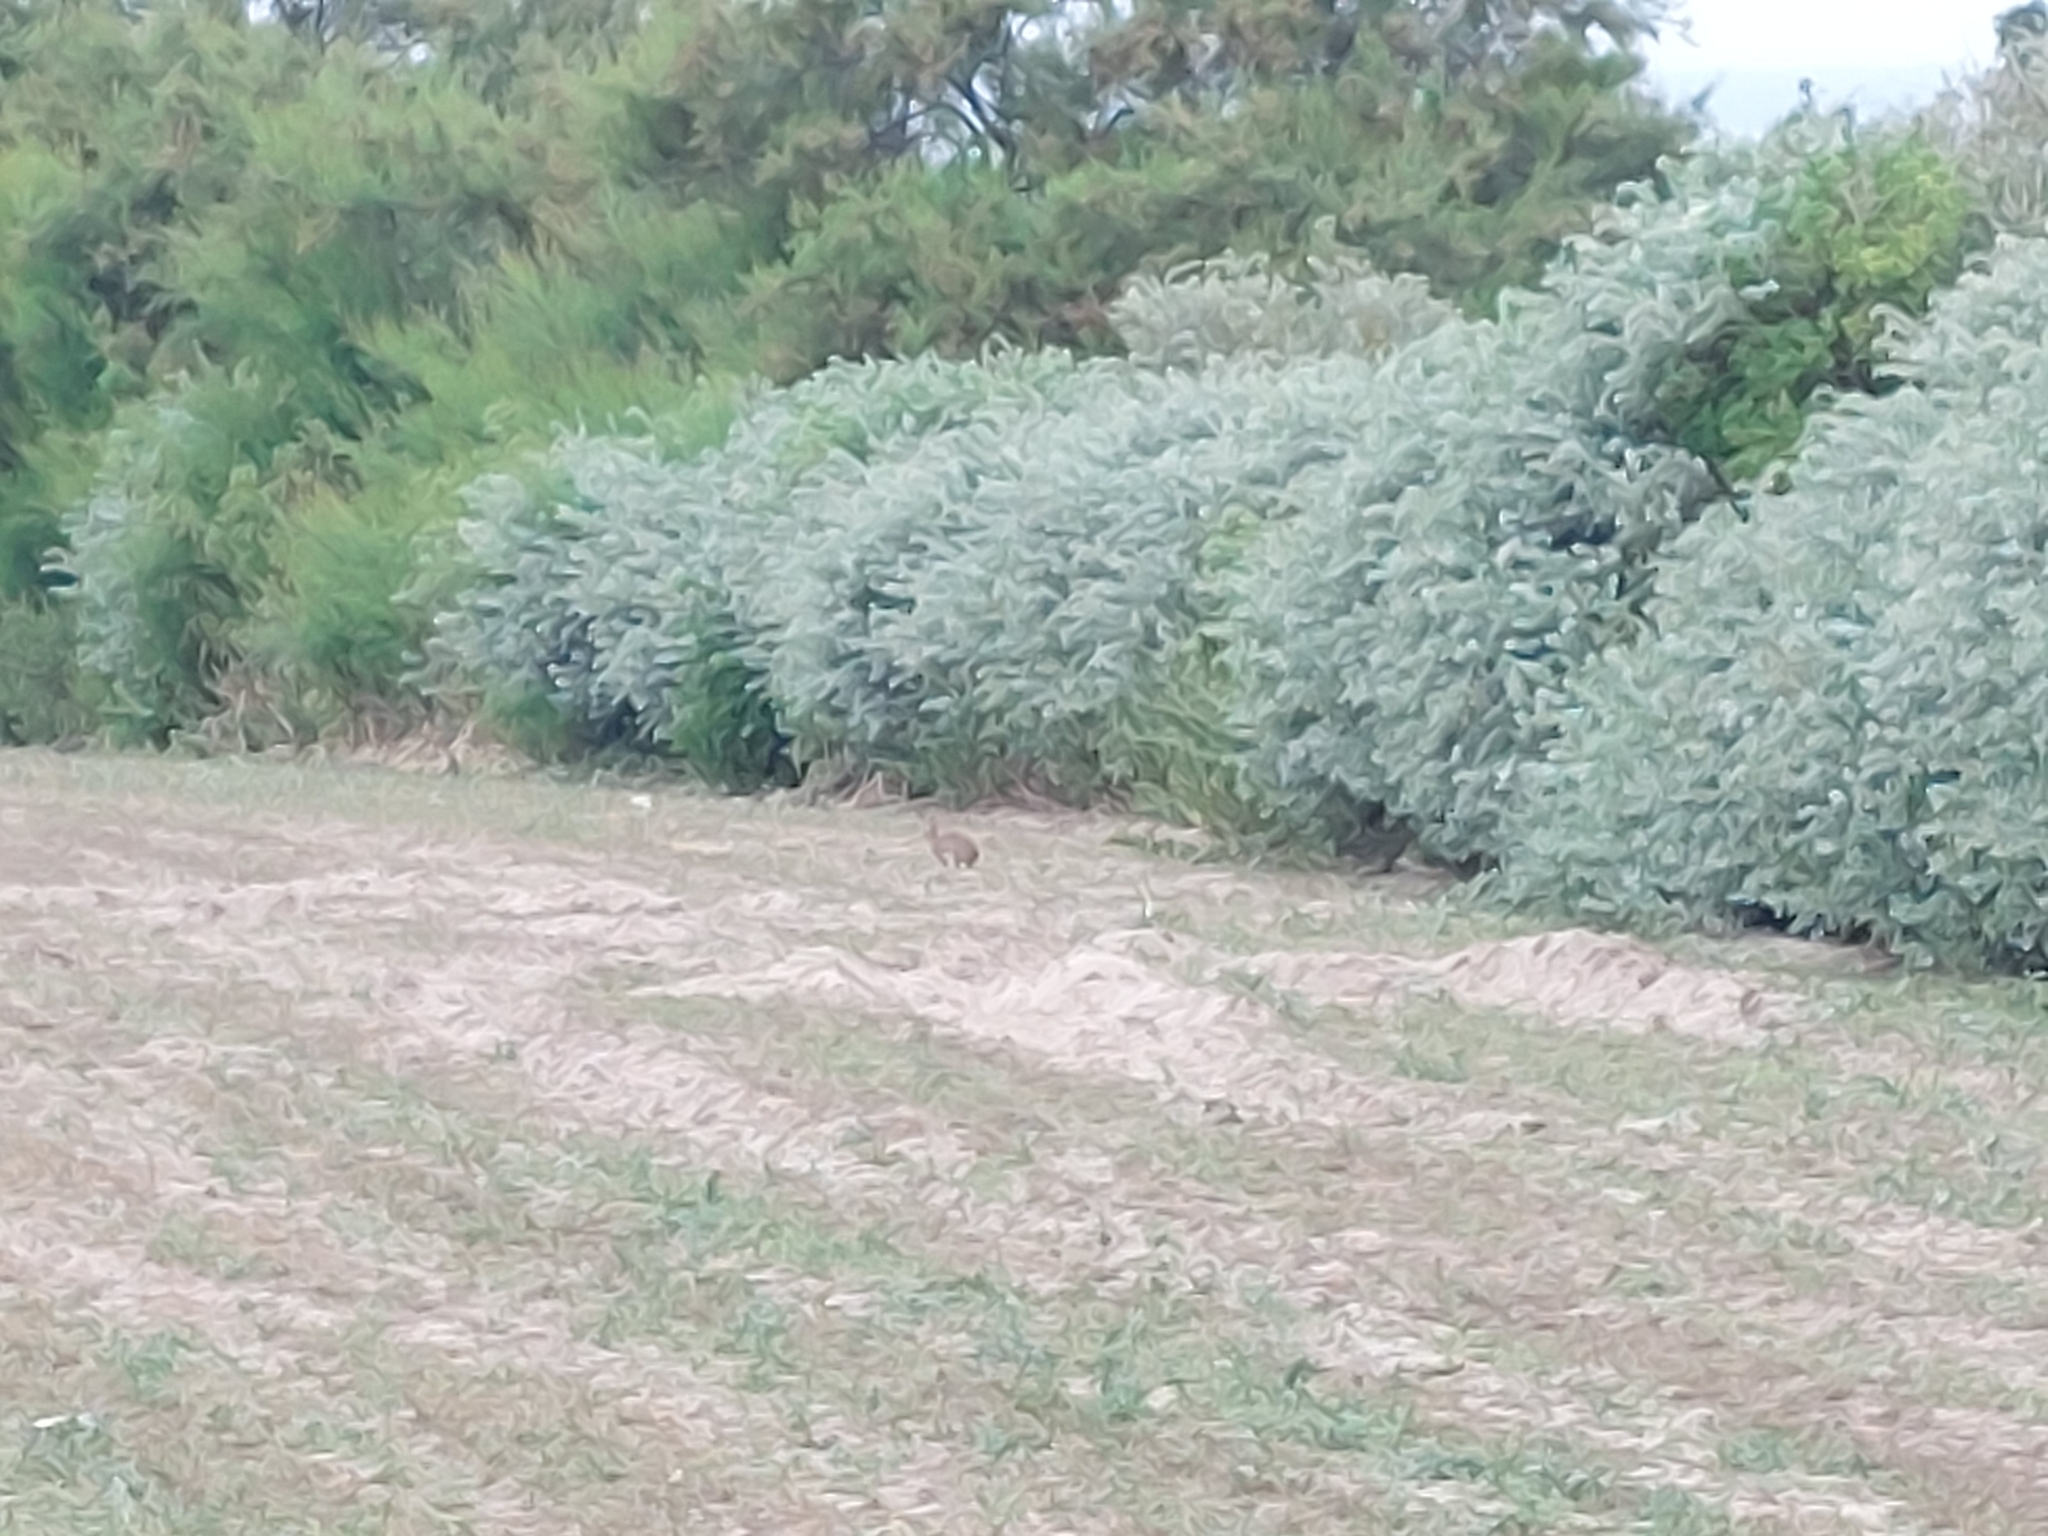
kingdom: Animalia
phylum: Chordata
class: Mammalia
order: Lagomorpha
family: Leporidae
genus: Oryctolagus
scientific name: Oryctolagus cuniculus
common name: European rabbit
